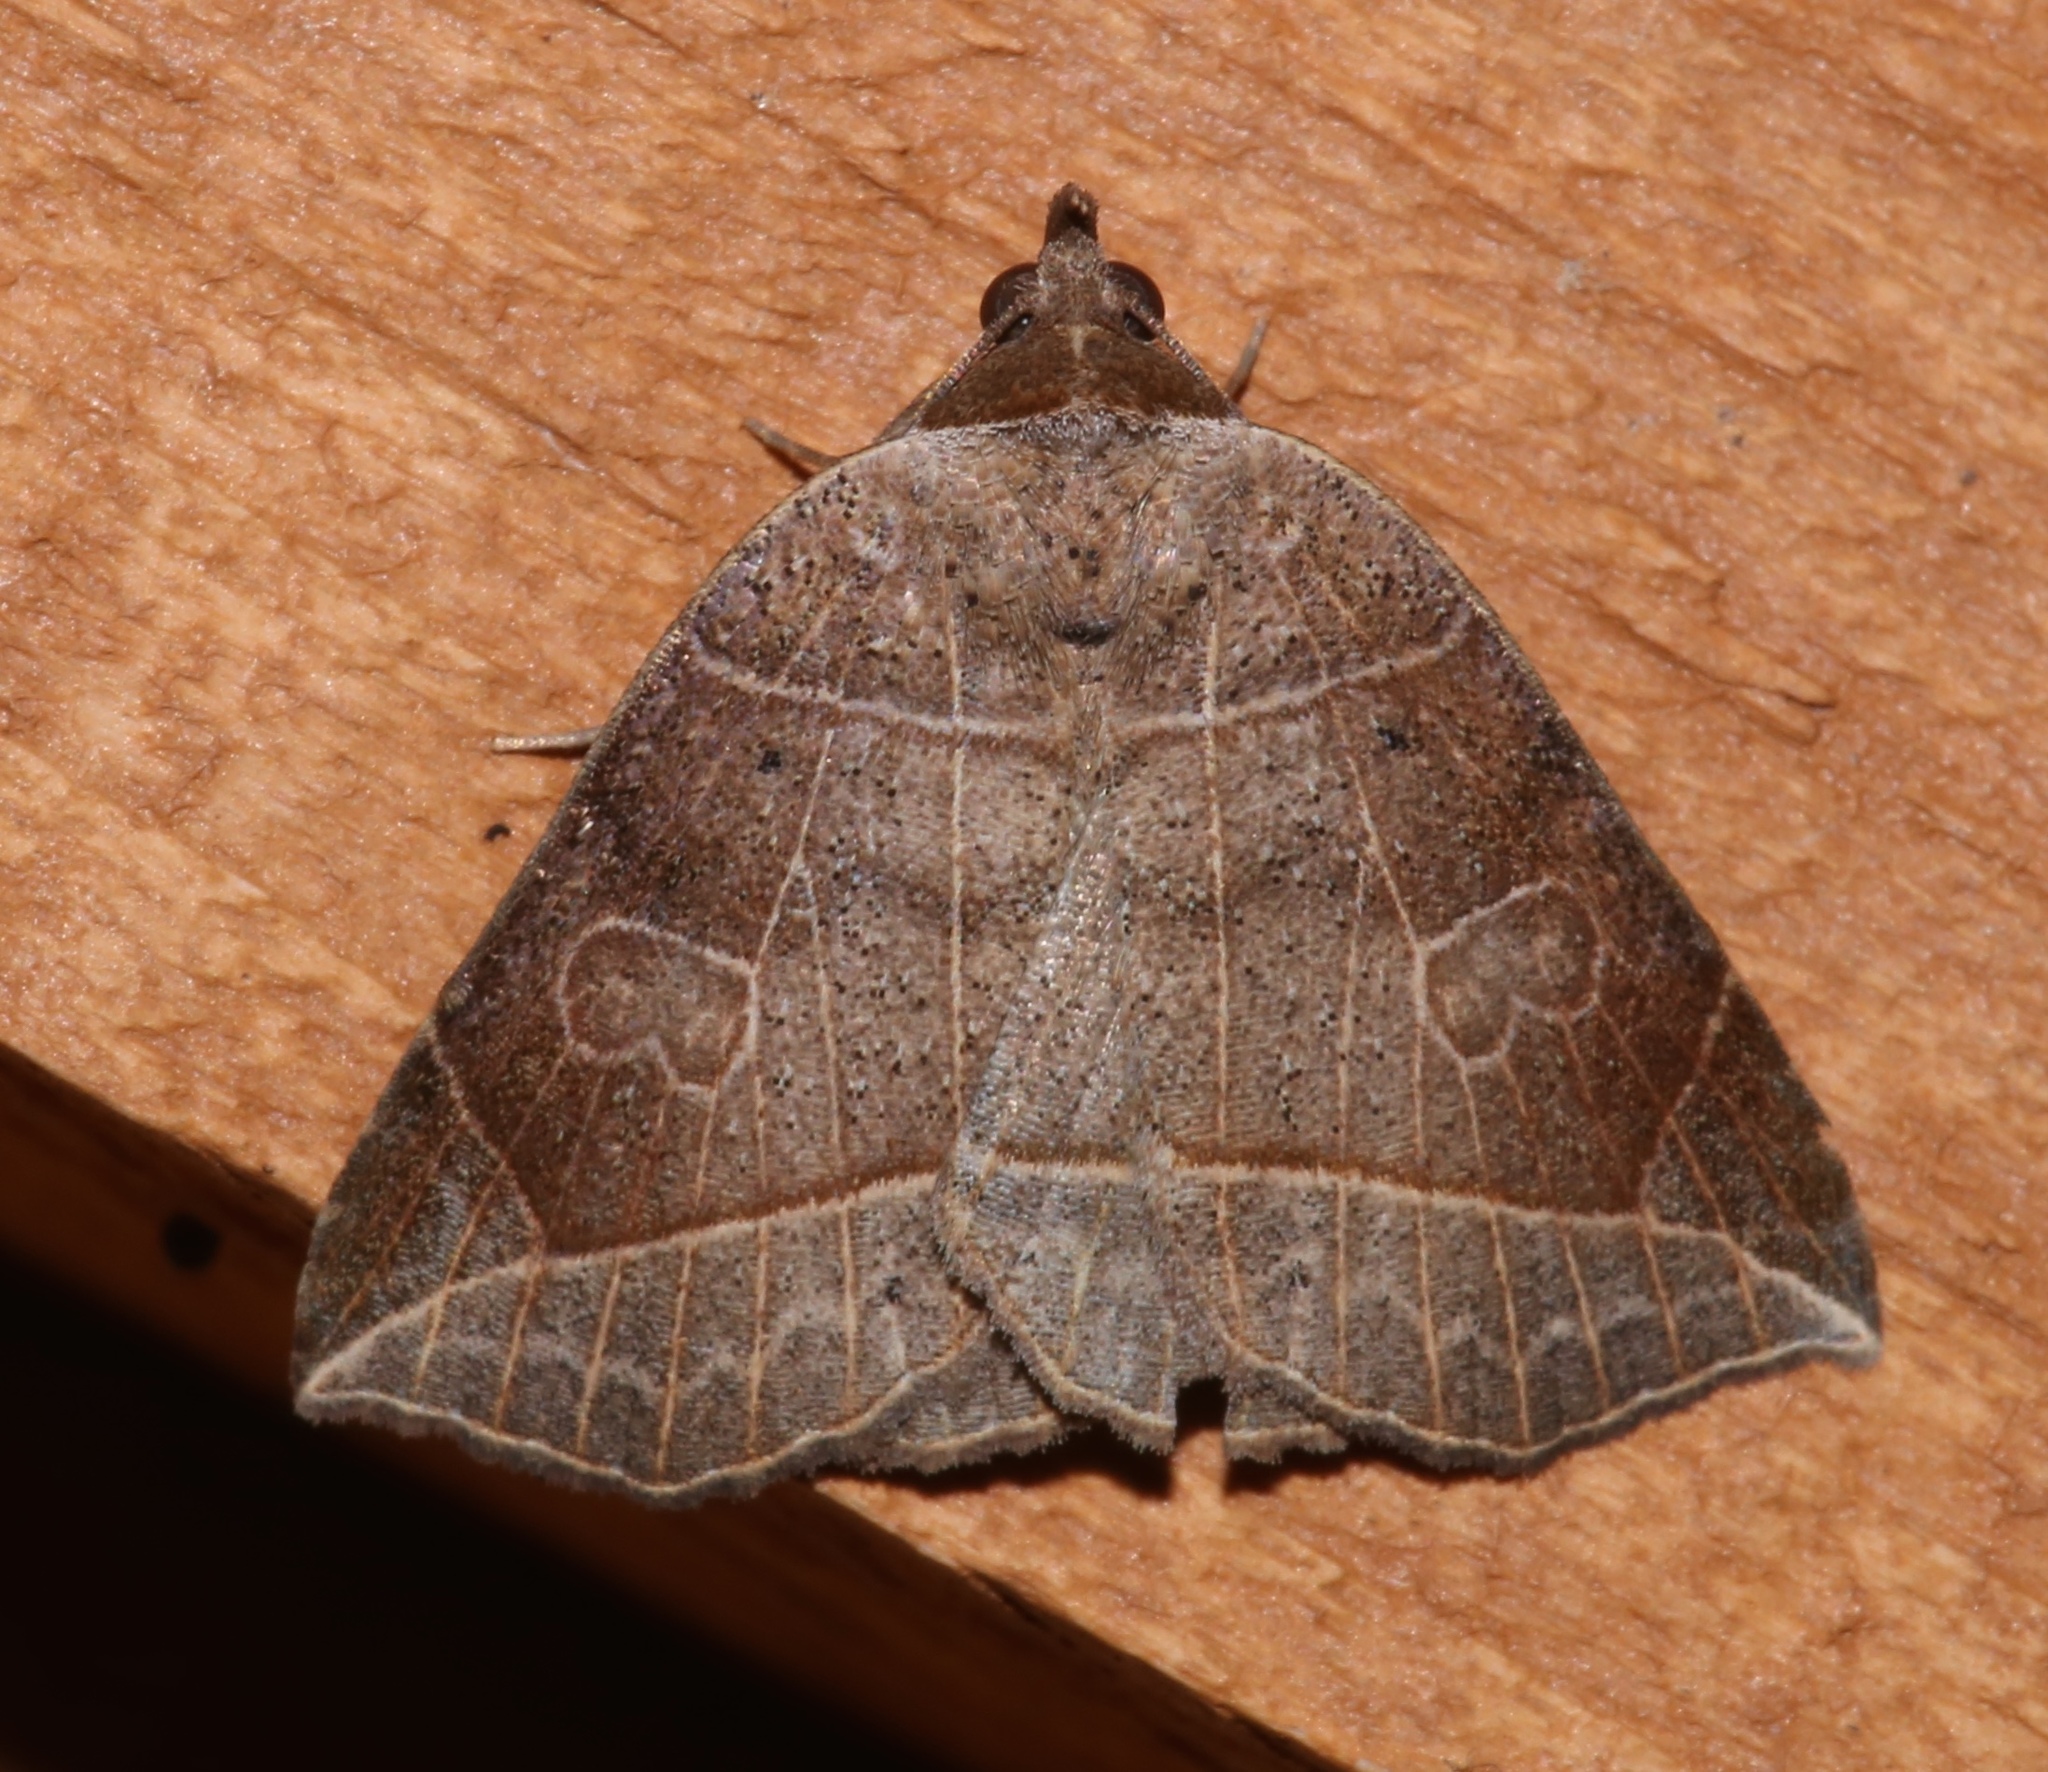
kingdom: Animalia
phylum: Arthropoda
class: Insecta
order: Lepidoptera
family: Erebidae
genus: Isogona
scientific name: Isogona tenuis
